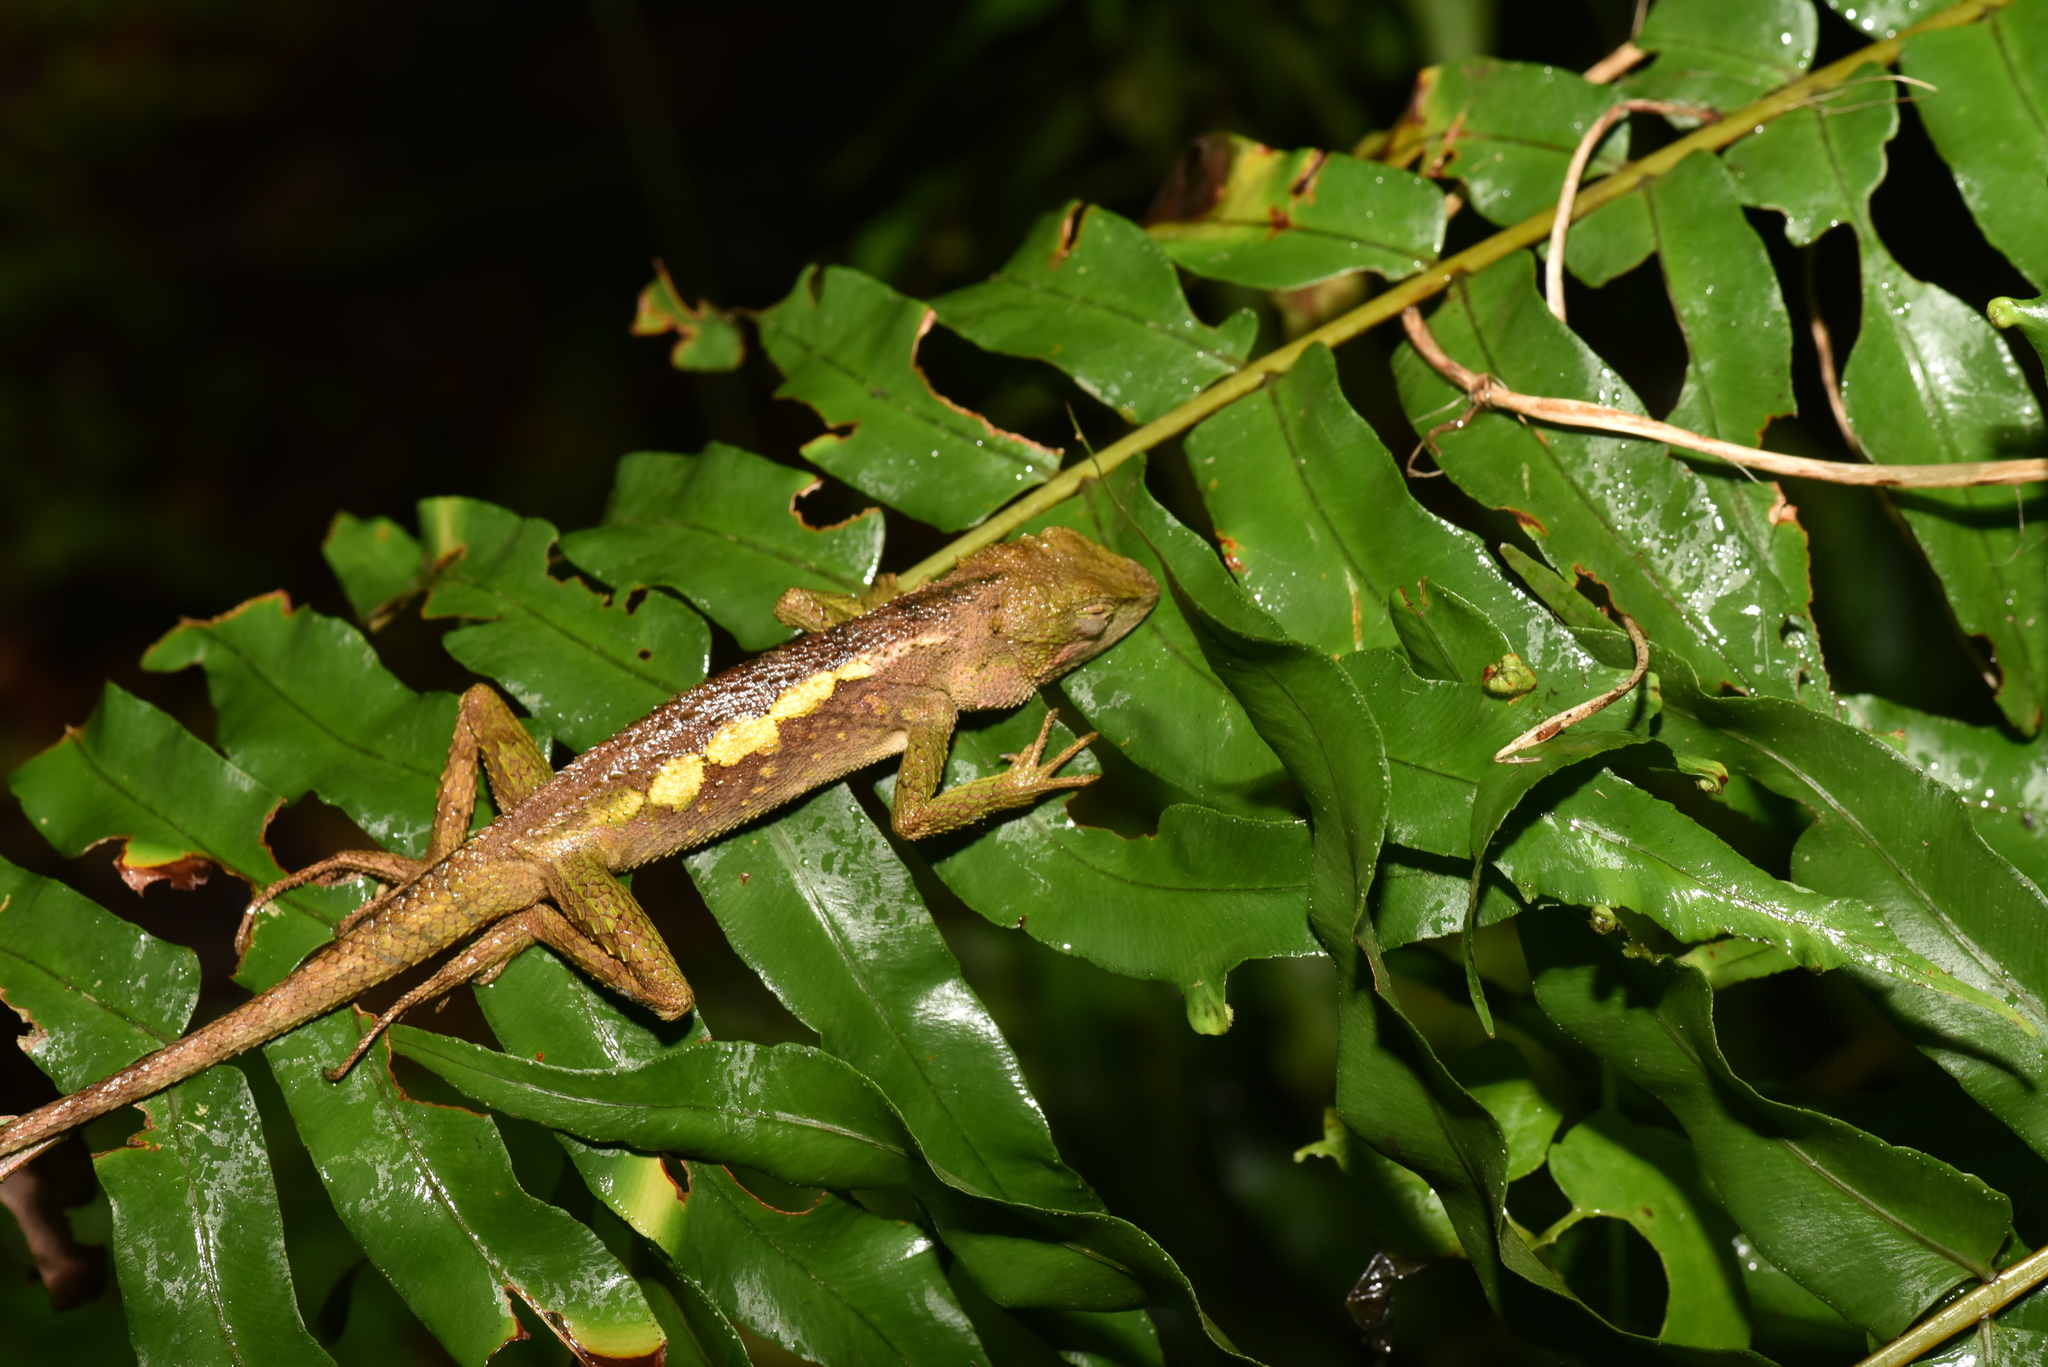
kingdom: Animalia
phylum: Chordata
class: Squamata
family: Agamidae
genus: Diploderma
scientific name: Diploderma swinhonis
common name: Taiwan japalure
